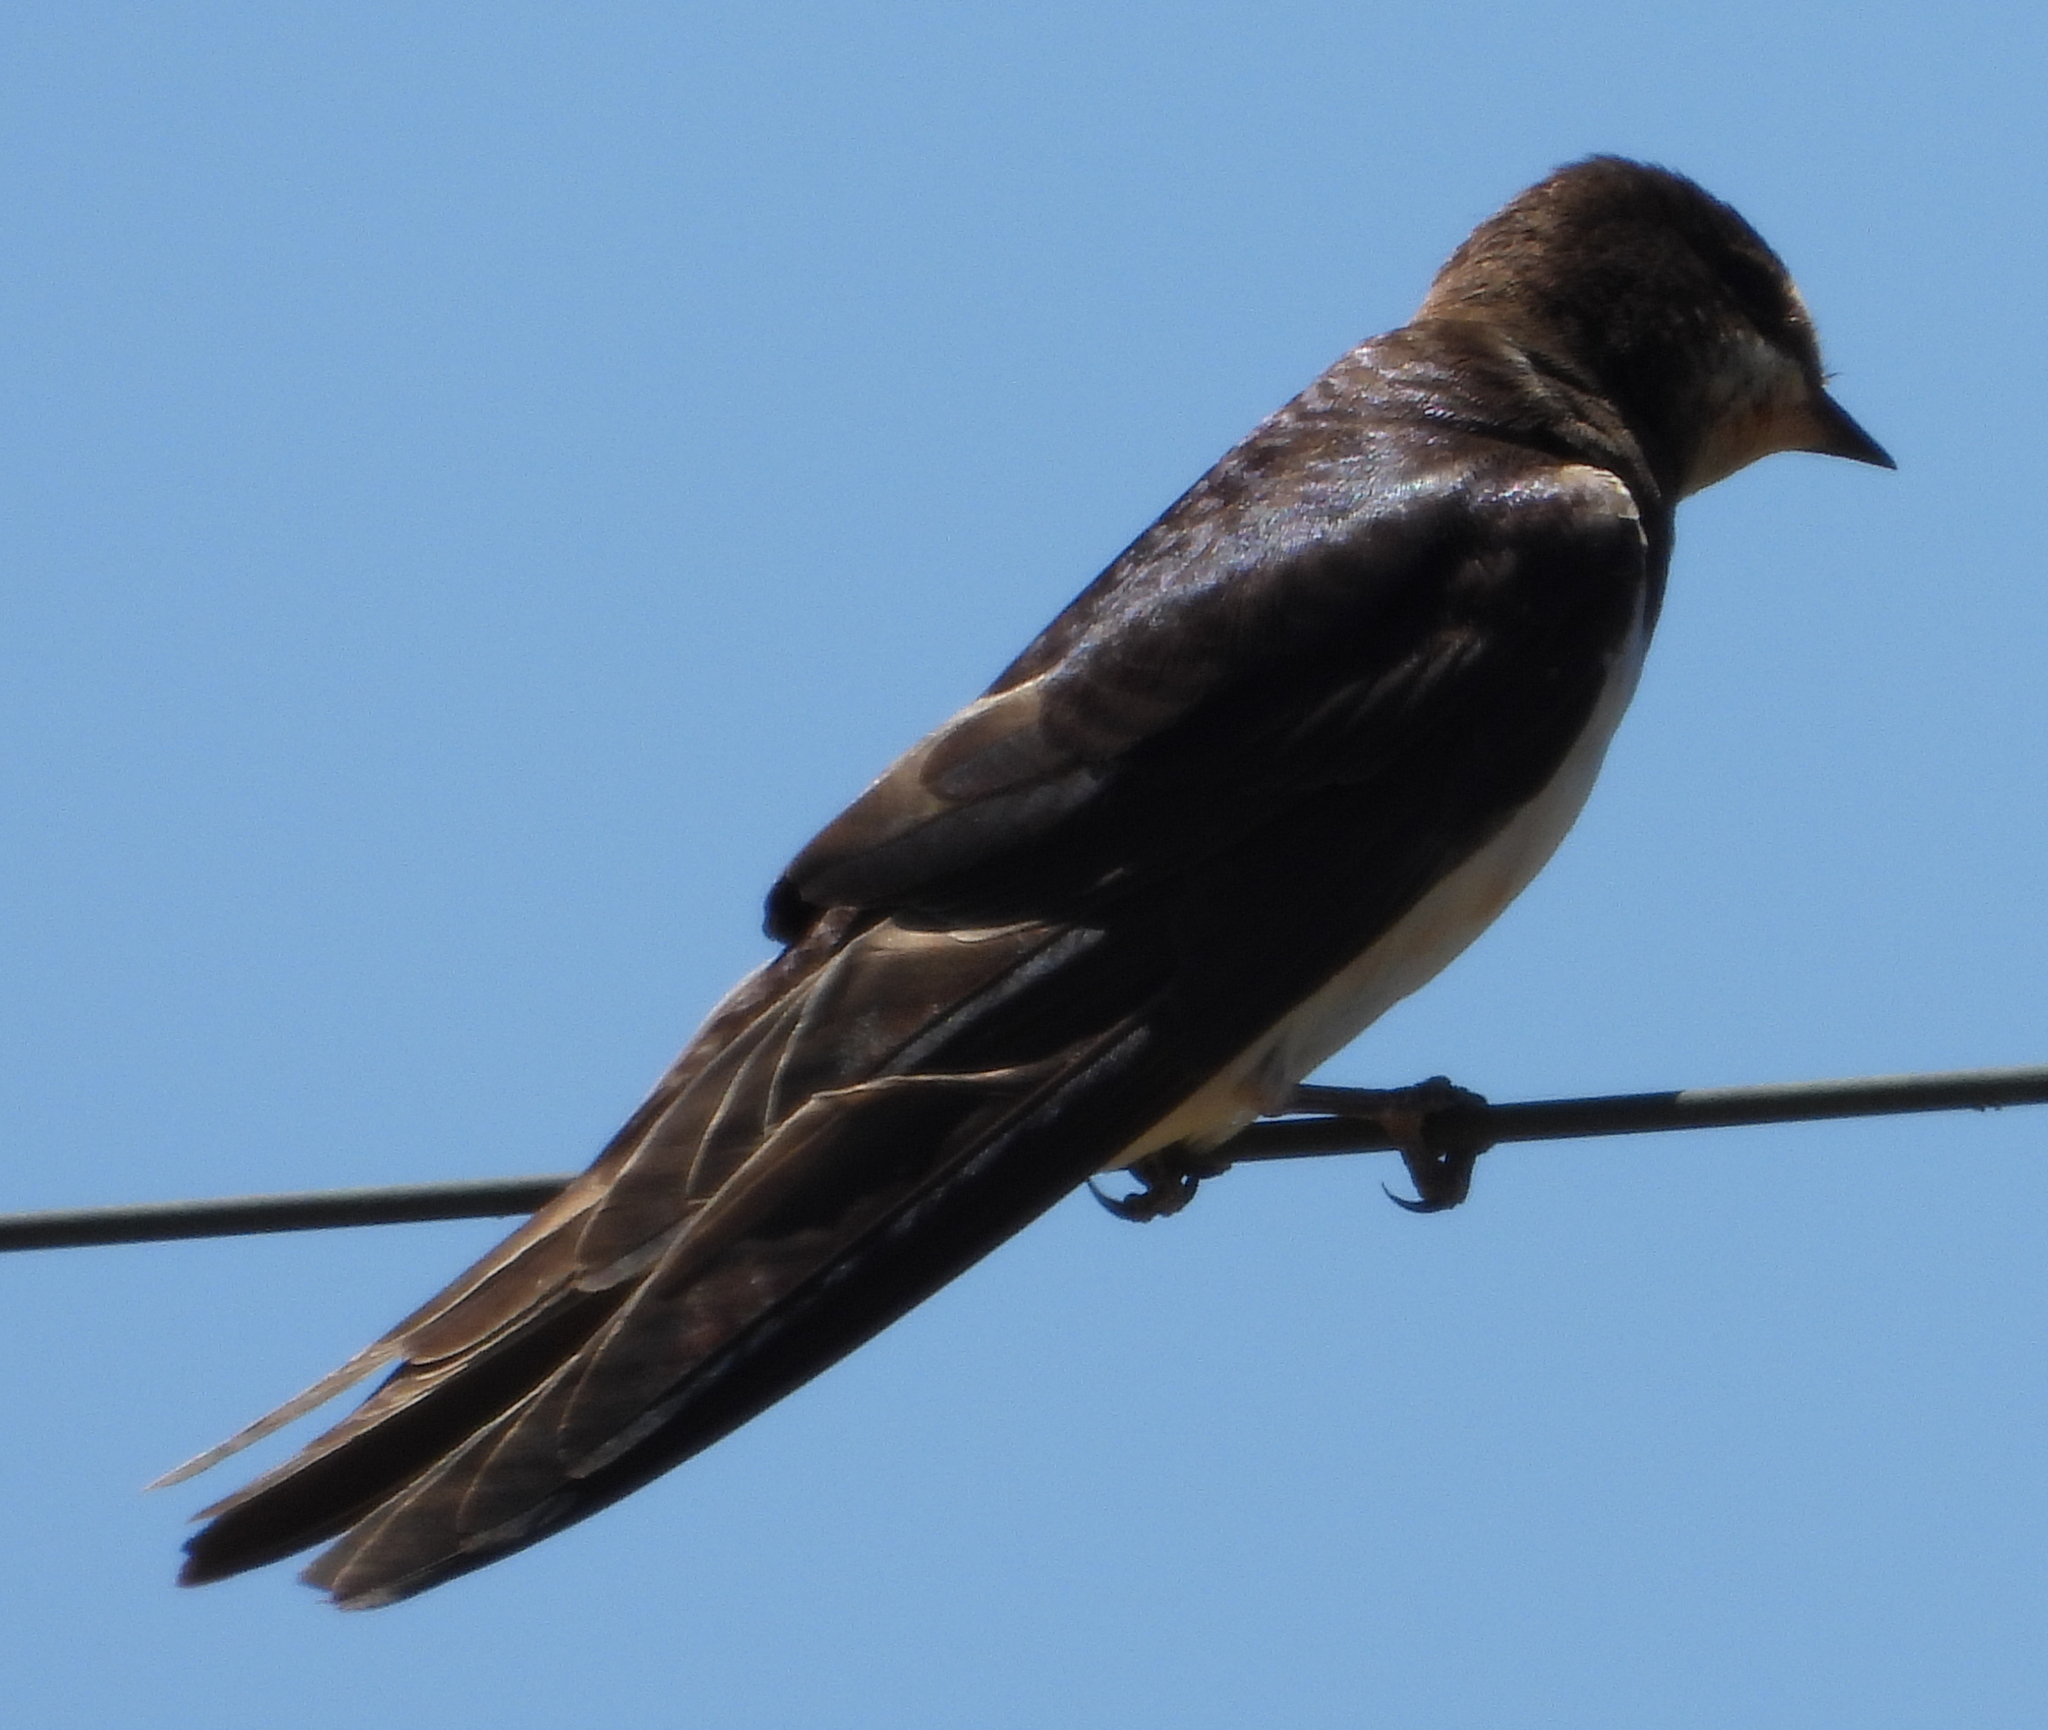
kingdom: Animalia
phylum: Chordata
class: Aves
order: Passeriformes
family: Hirundinidae
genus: Hirundo
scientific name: Hirundo rustica
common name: Barn swallow
